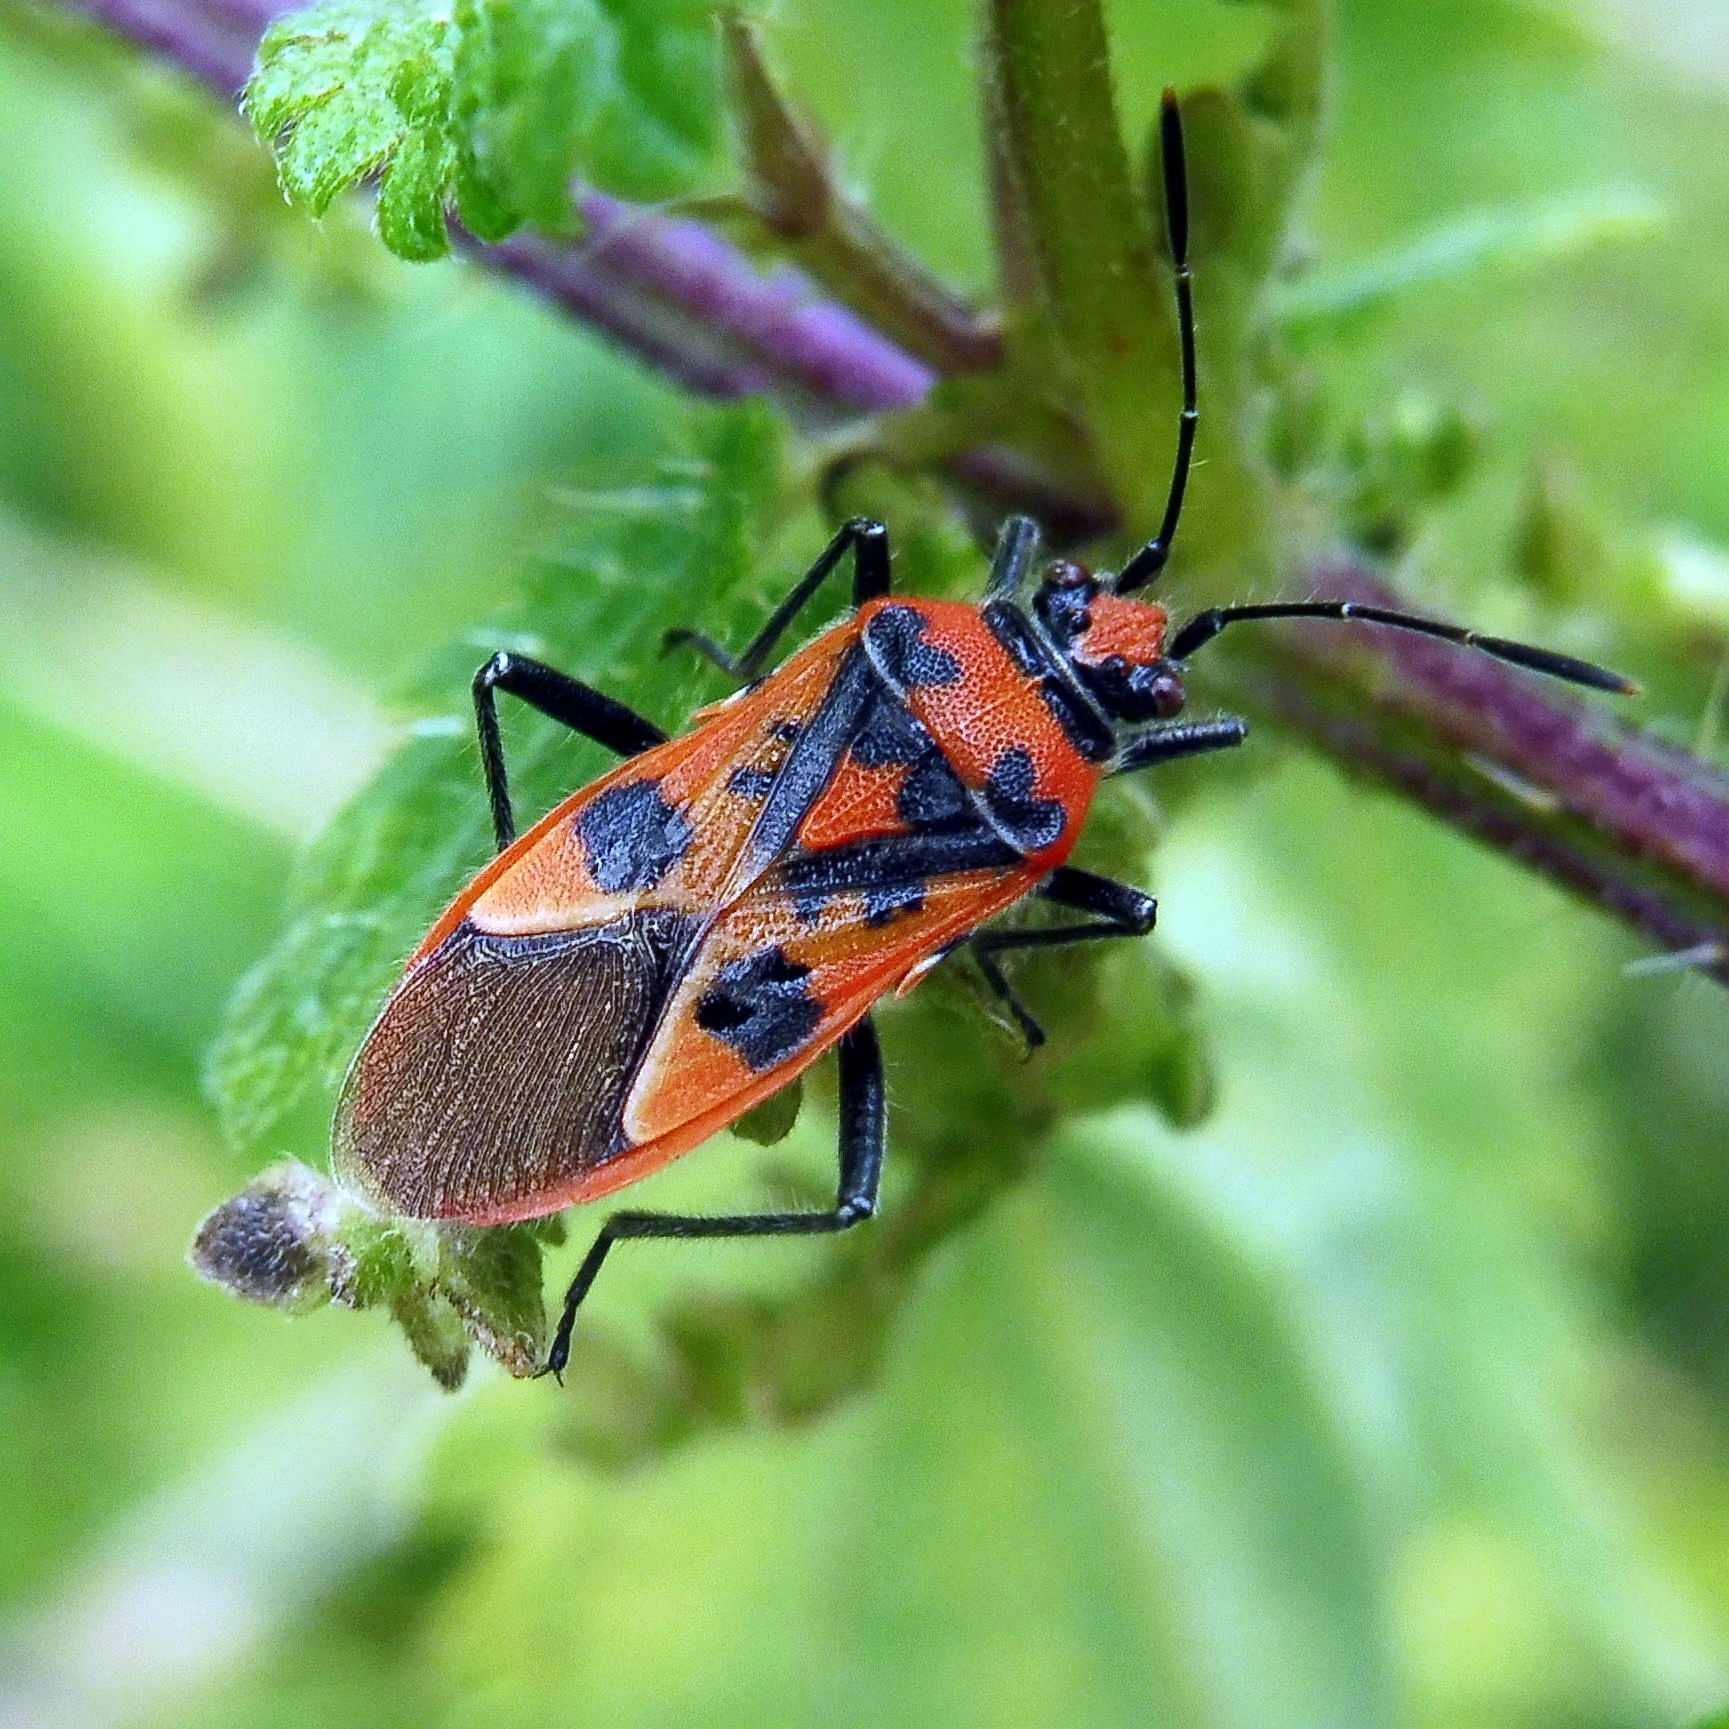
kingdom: Animalia
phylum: Arthropoda
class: Insecta
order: Hemiptera
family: Rhopalidae
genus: Corizus
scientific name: Corizus hyoscyami
